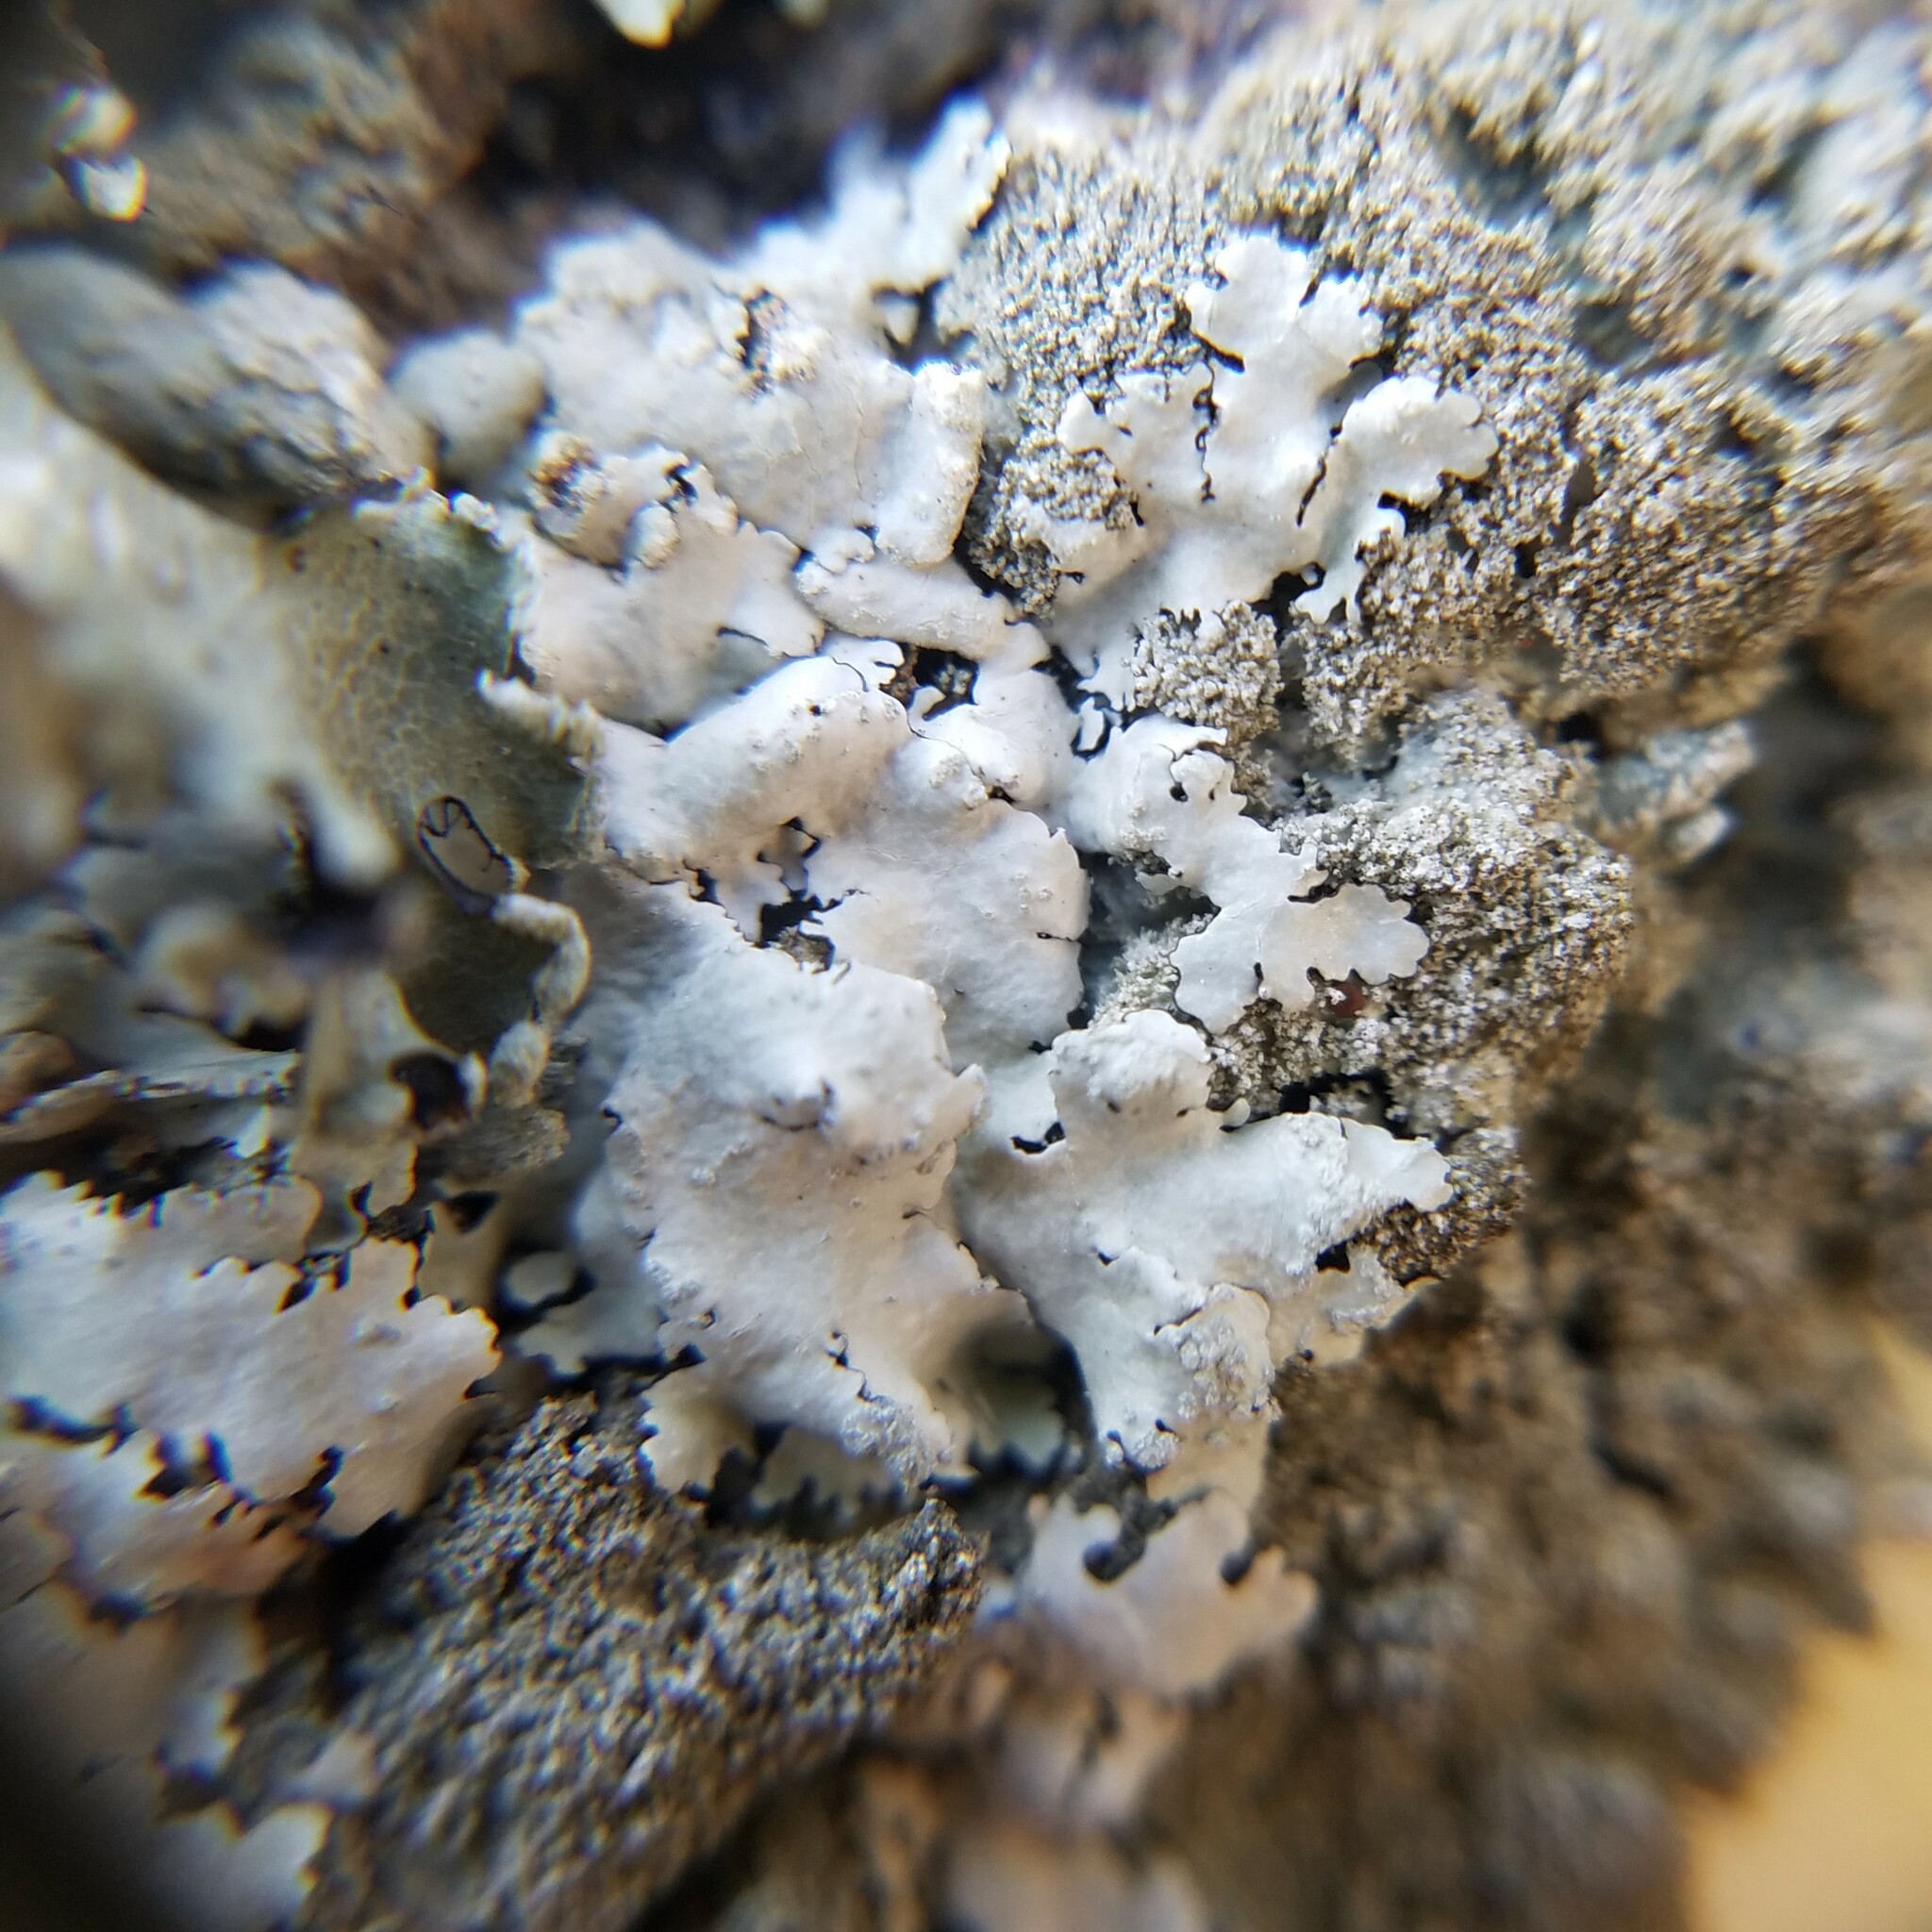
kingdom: Fungi
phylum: Ascomycota
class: Lecanoromycetes
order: Lecanorales
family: Parmeliaceae
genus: Canoparmelia
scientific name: Canoparmelia texana
